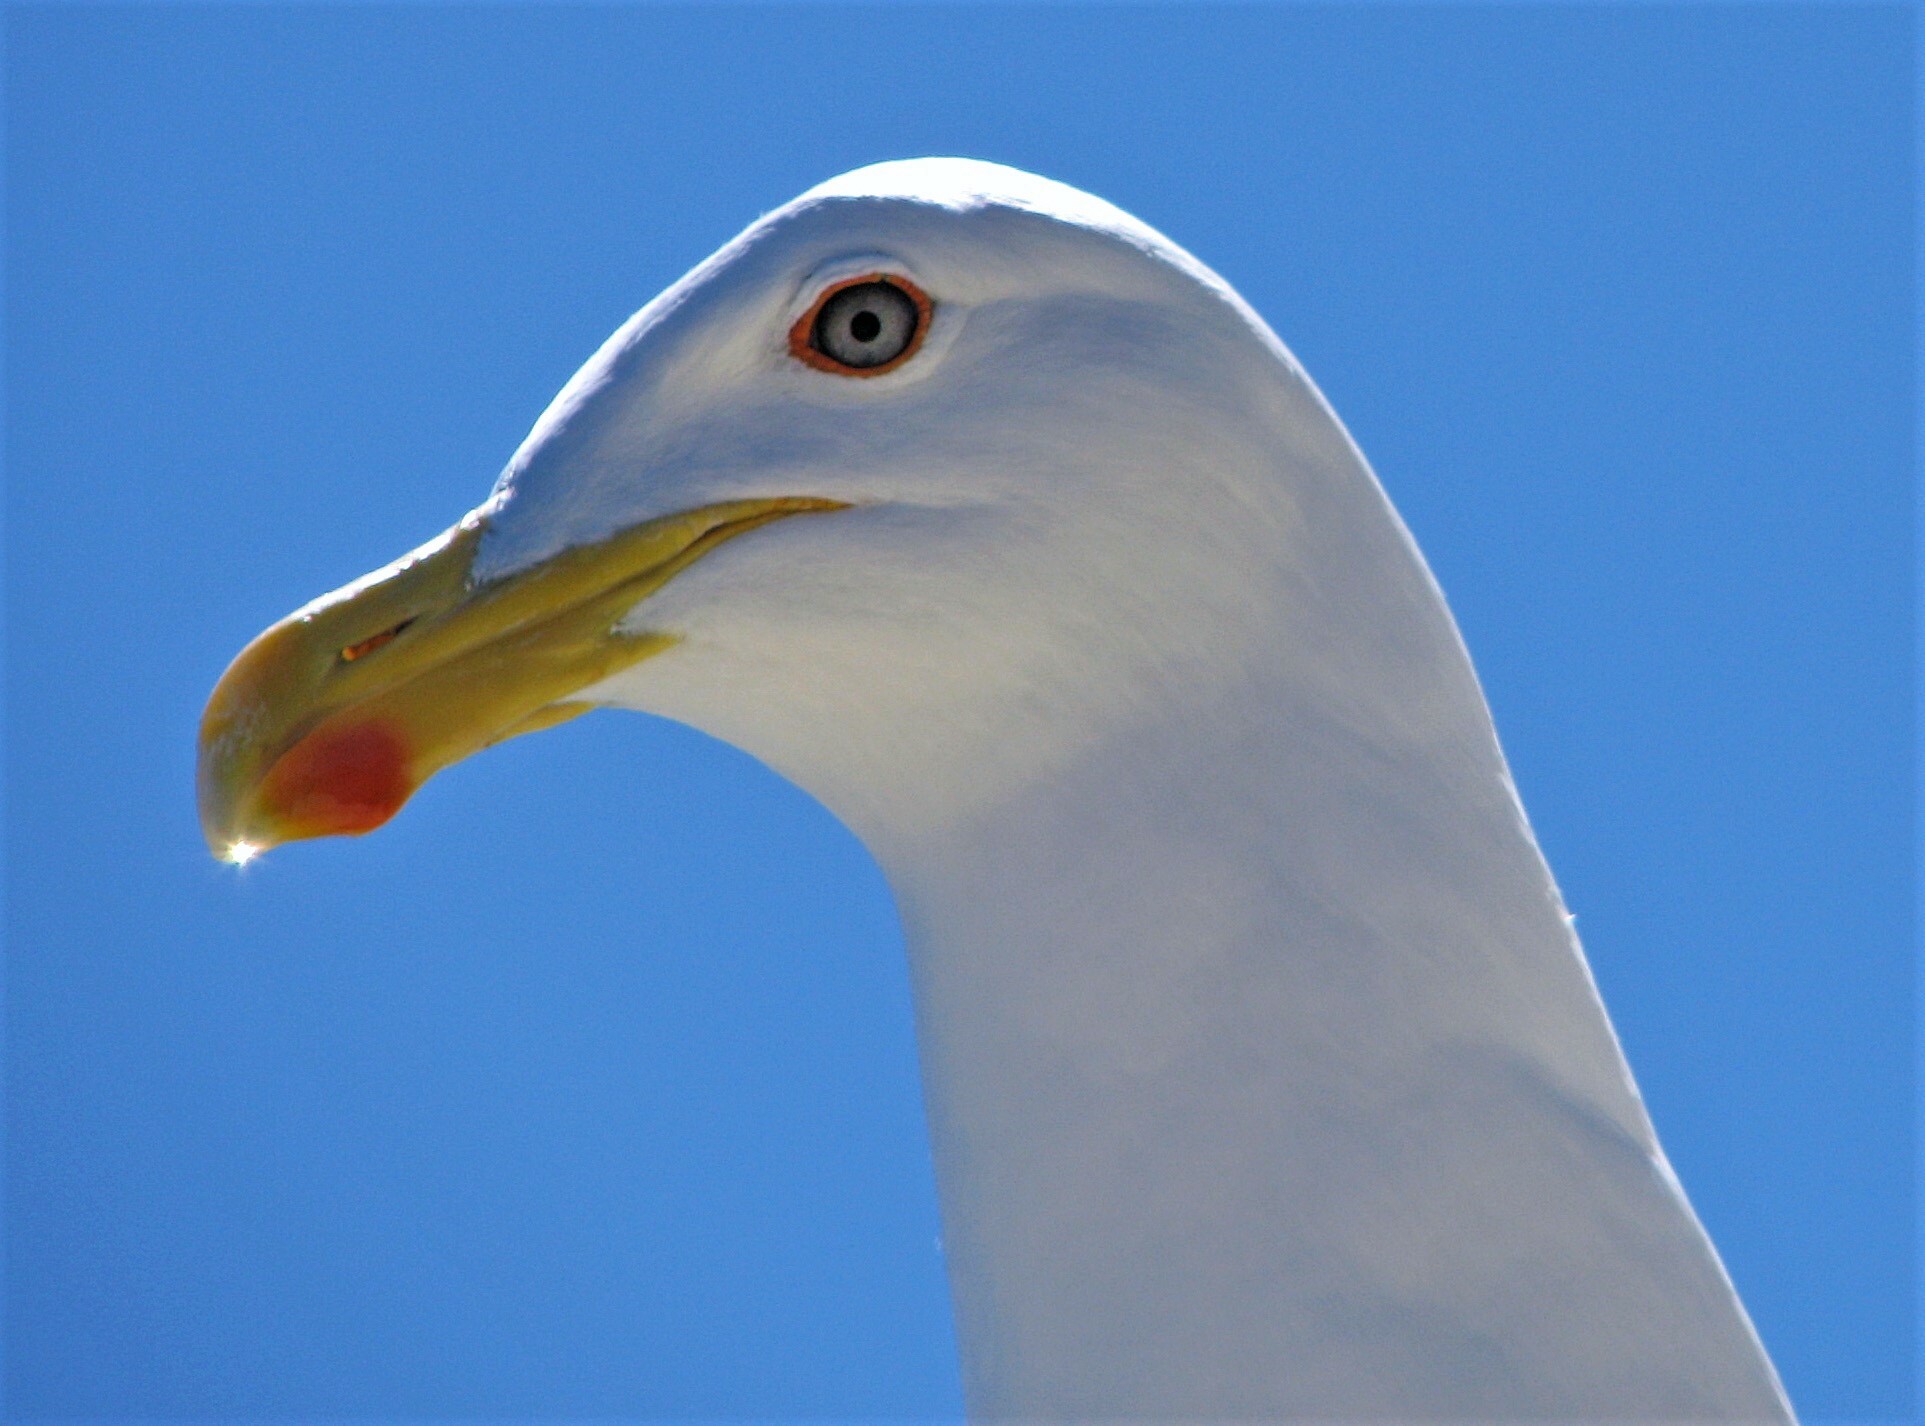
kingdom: Animalia
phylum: Chordata
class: Aves
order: Charadriiformes
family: Laridae
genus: Larus
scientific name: Larus dominicanus
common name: Kelp gull
